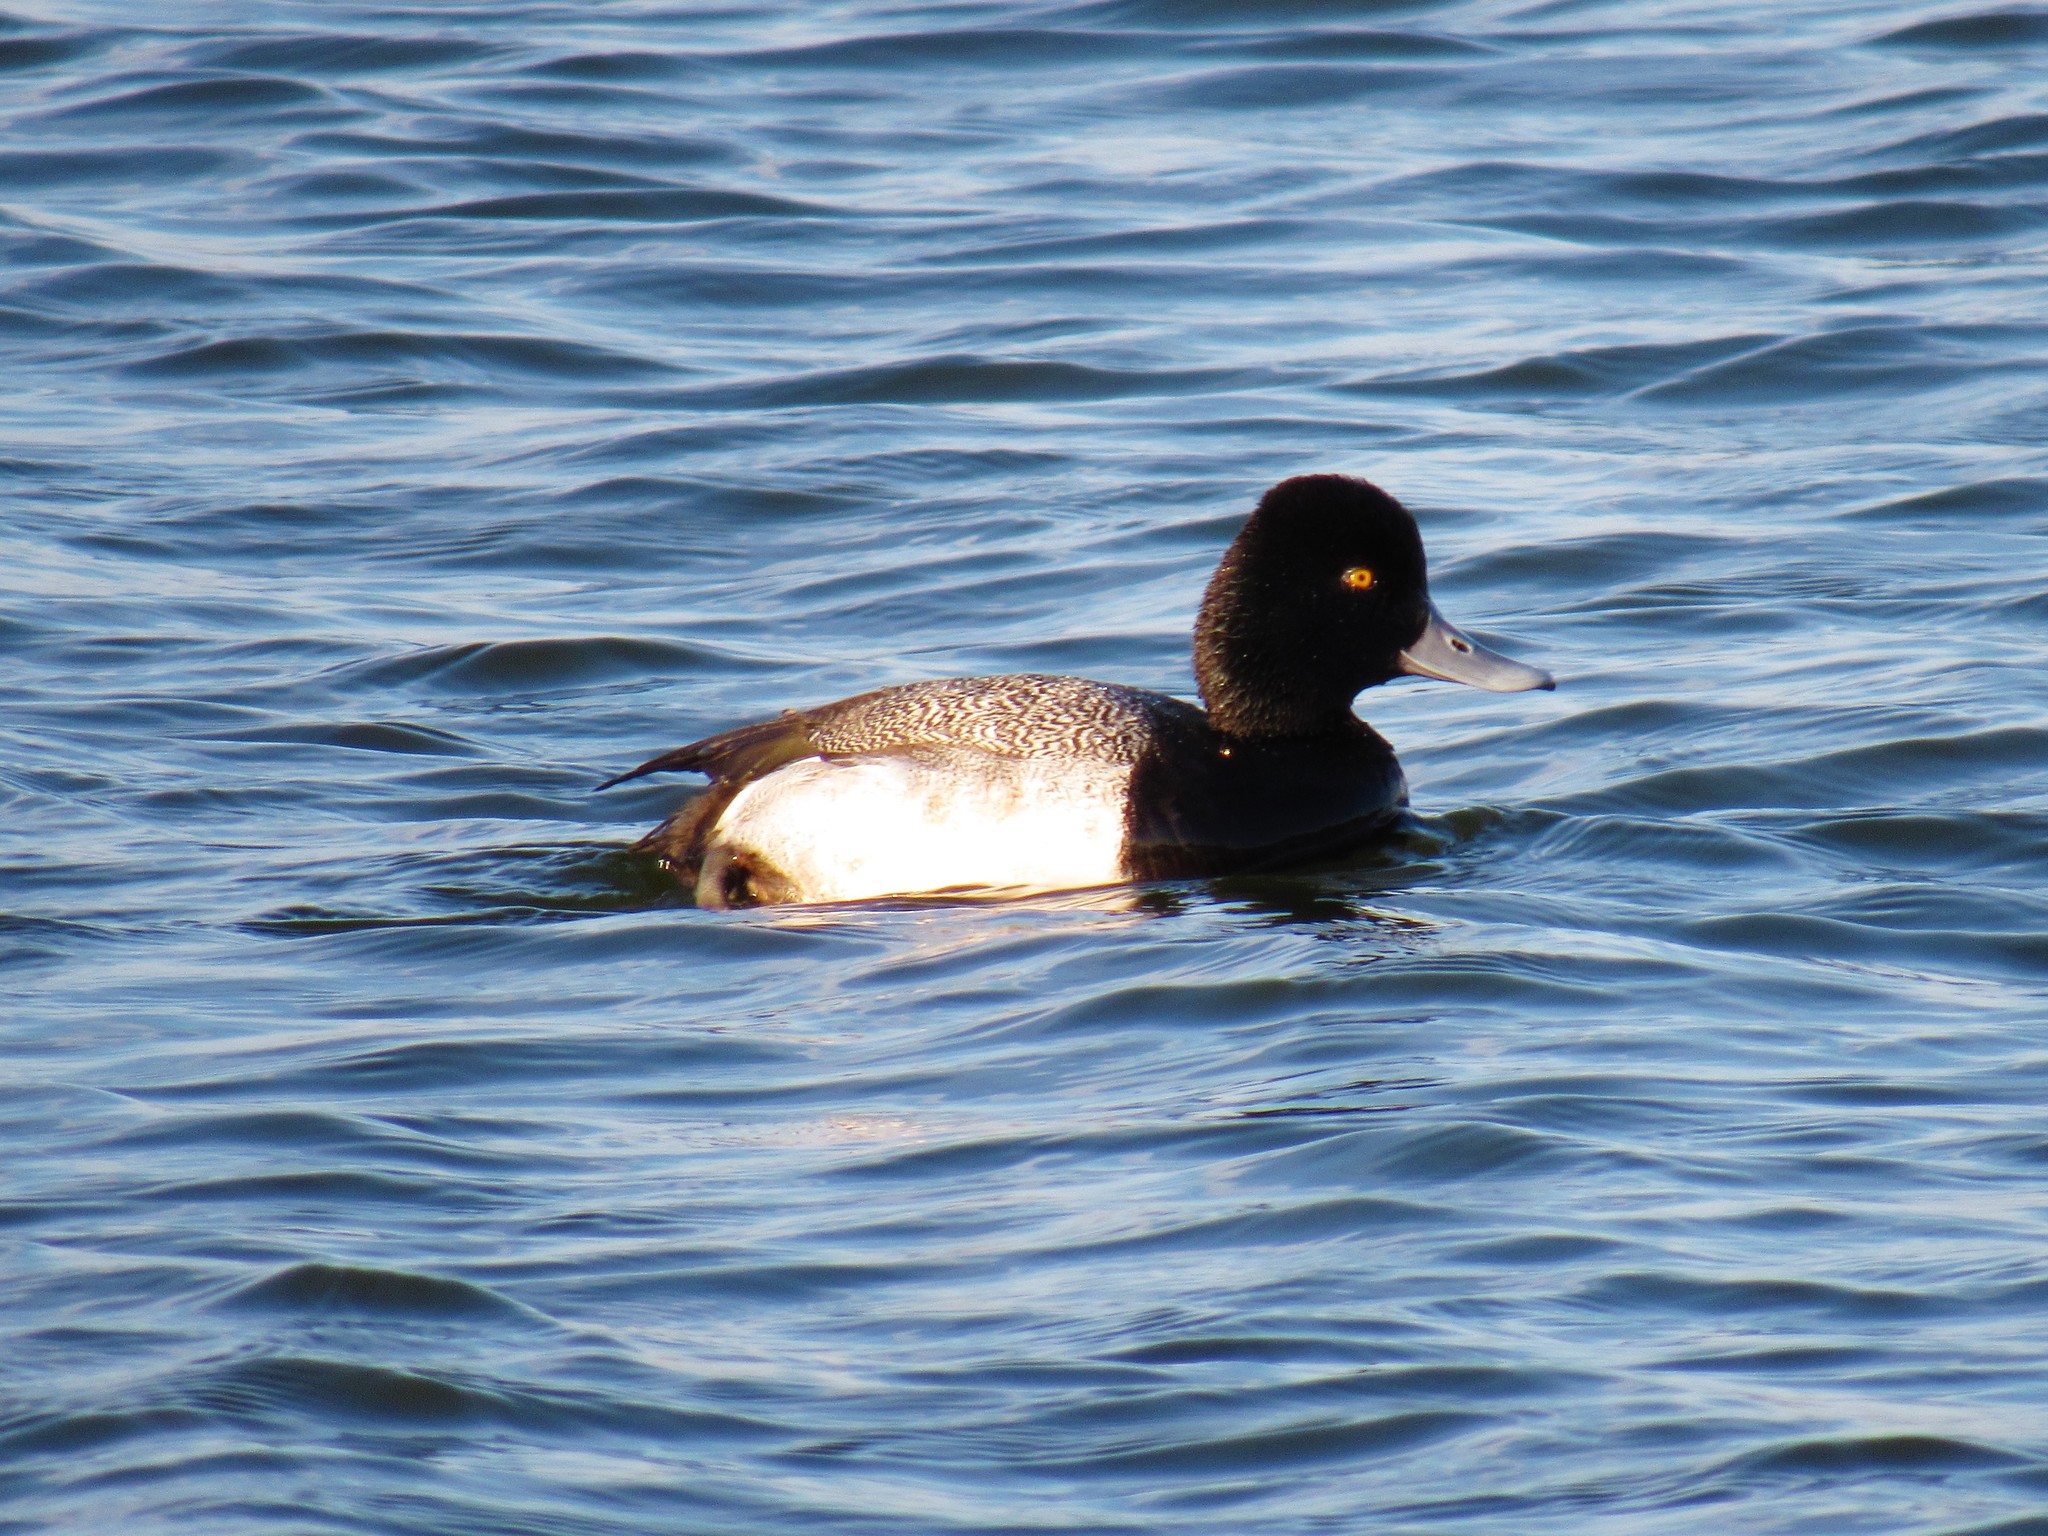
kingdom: Animalia
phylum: Chordata
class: Aves
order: Anseriformes
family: Anatidae
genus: Aythya
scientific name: Aythya affinis
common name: Lesser scaup
